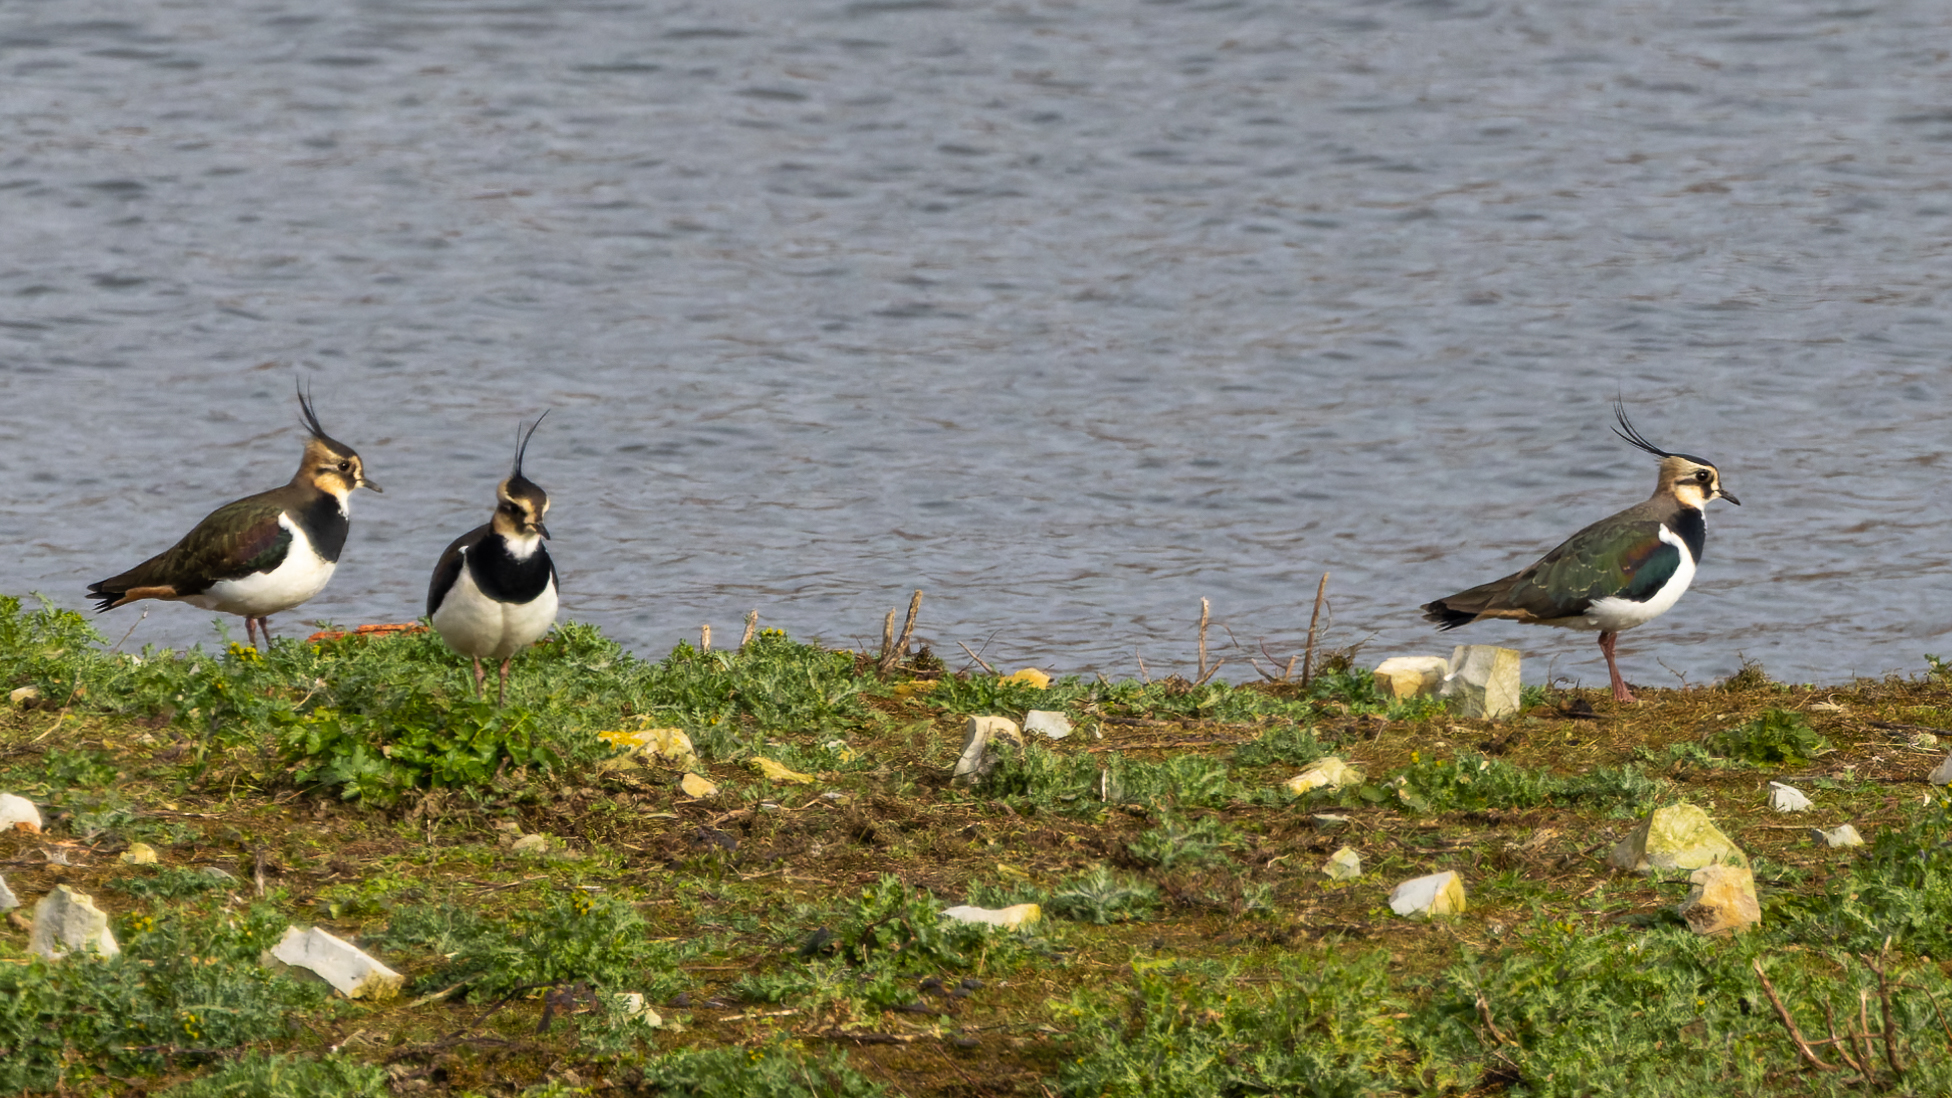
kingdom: Animalia
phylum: Chordata
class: Aves
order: Charadriiformes
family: Charadriidae
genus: Vanellus
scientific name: Vanellus vanellus
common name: Northern lapwing
